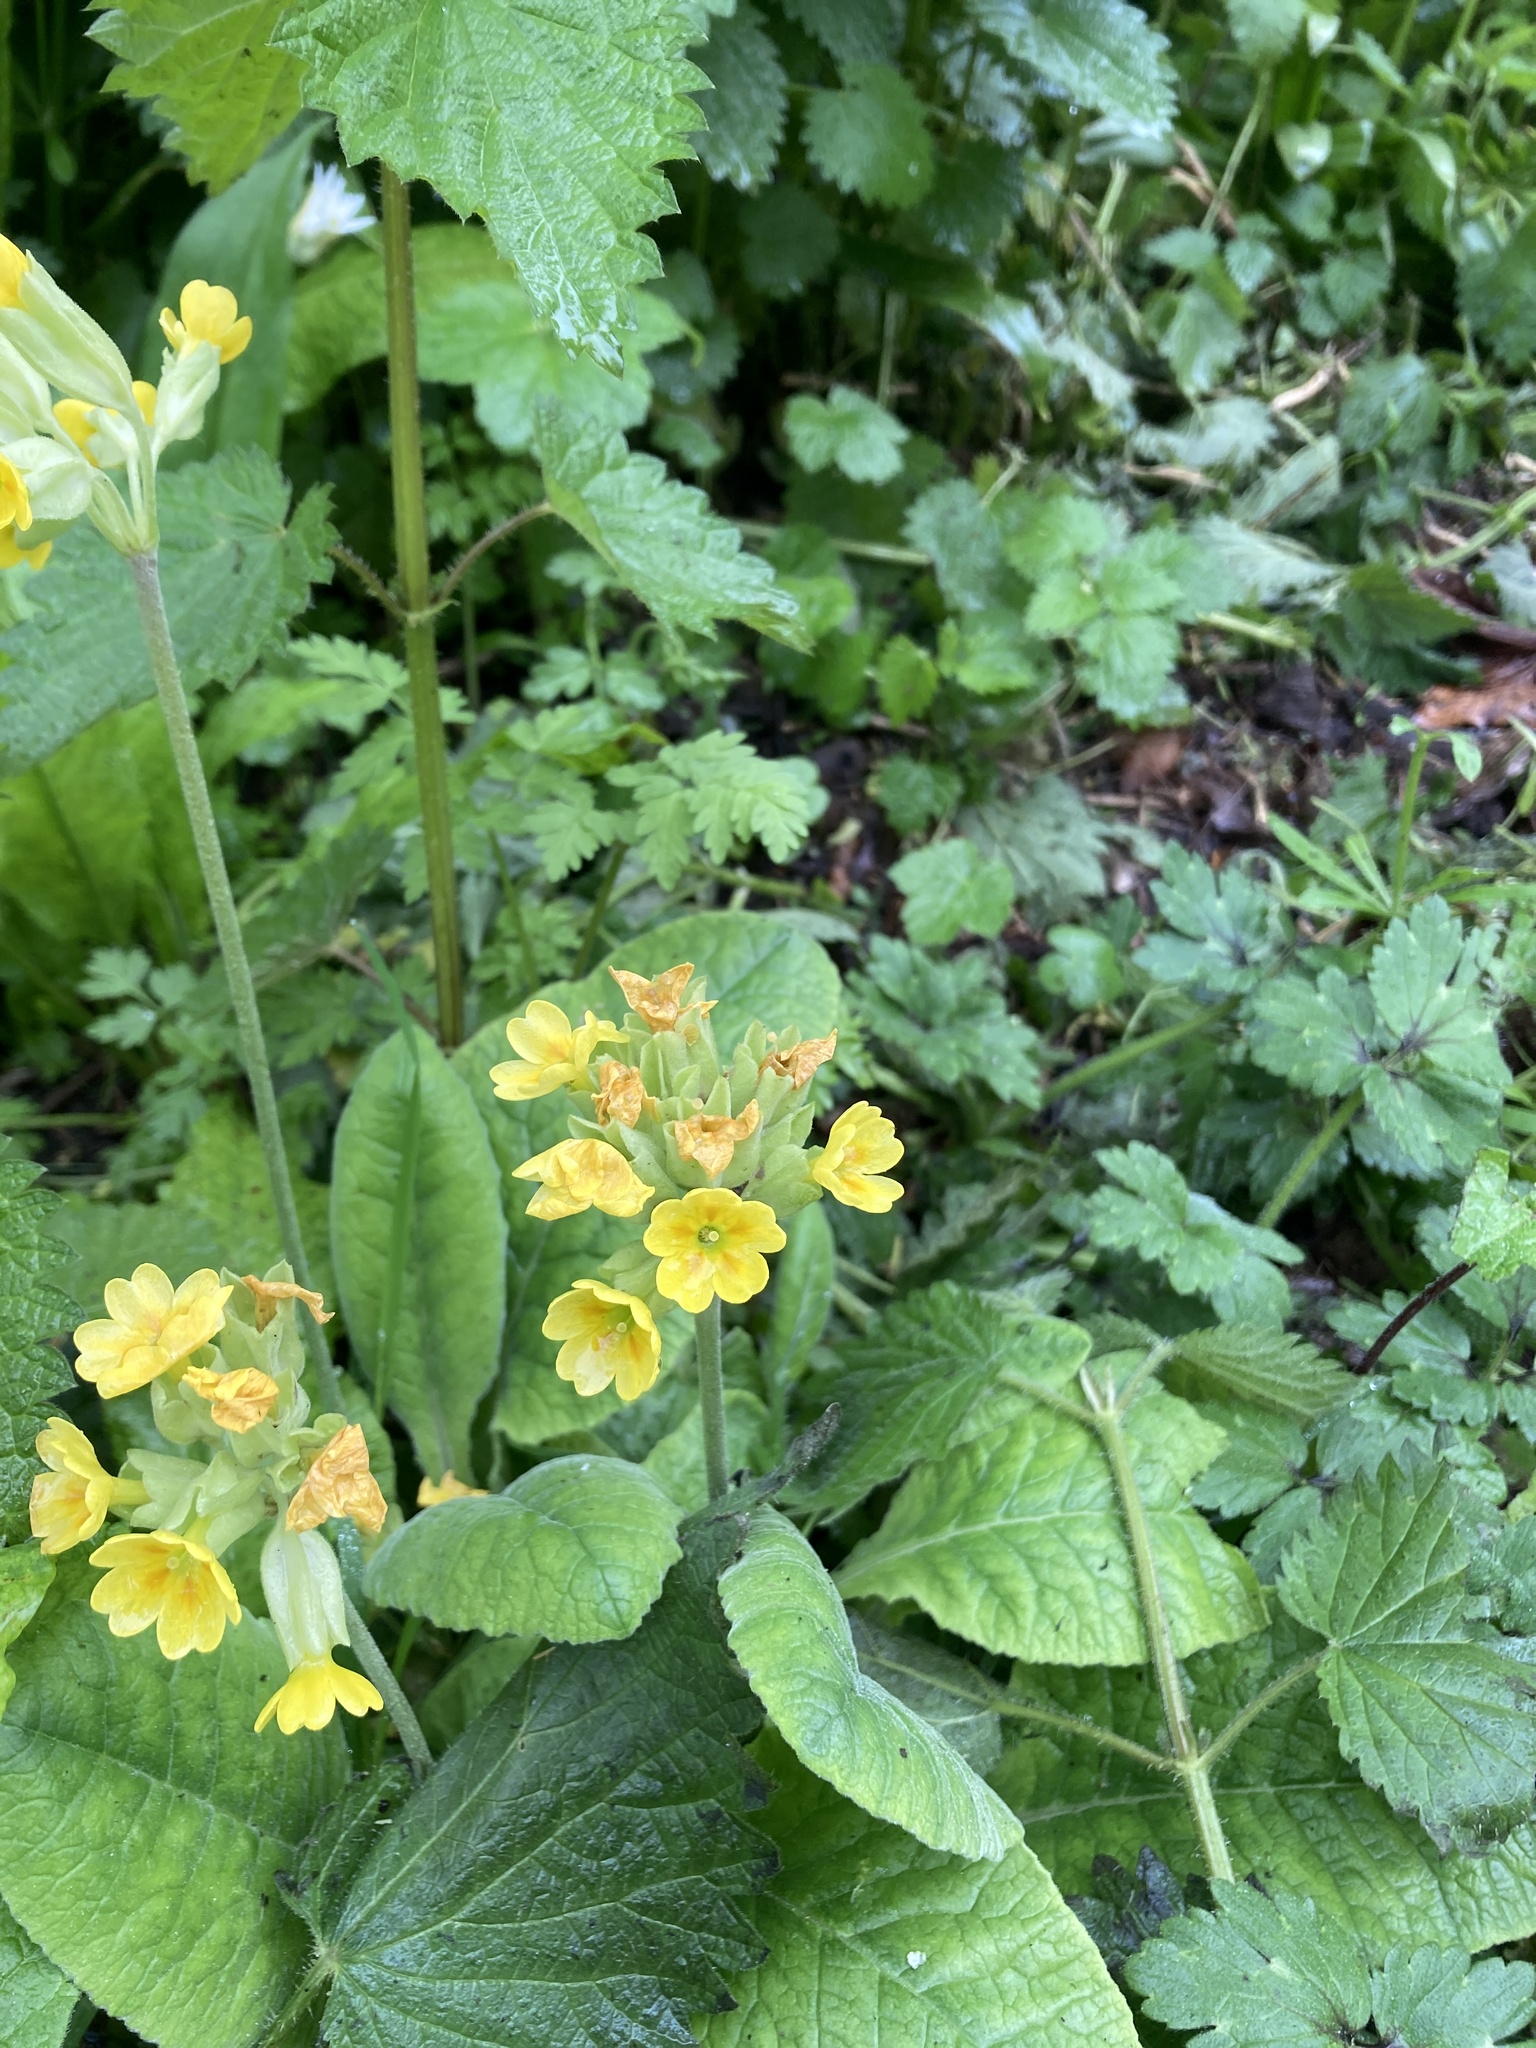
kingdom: Plantae
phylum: Tracheophyta
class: Magnoliopsida
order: Ericales
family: Primulaceae
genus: Primula
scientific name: Primula veris
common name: Cowslip
